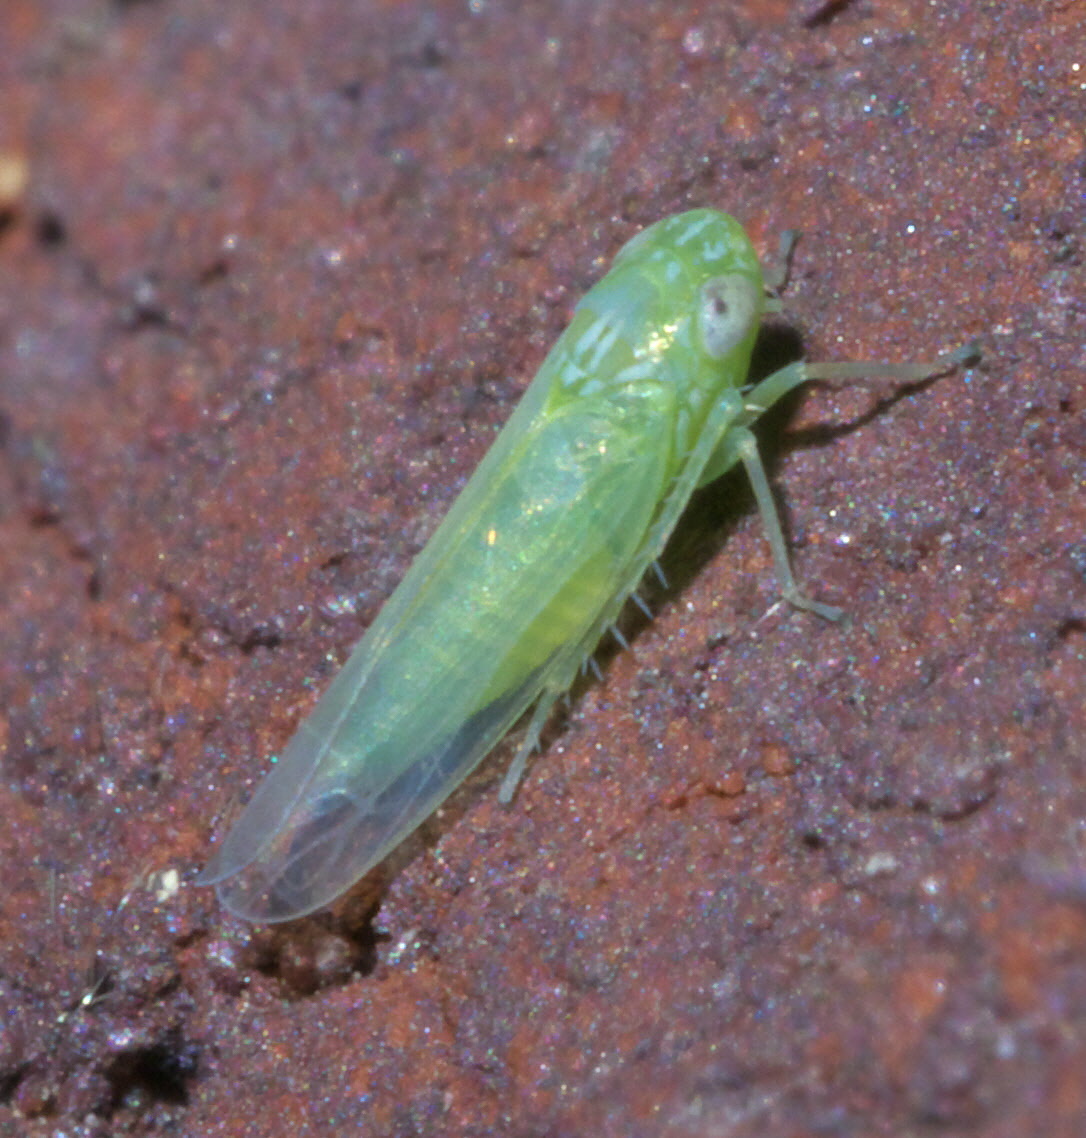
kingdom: Animalia
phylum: Arthropoda
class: Insecta
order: Hemiptera
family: Cicadellidae
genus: Empoasca
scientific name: Empoasca fabae
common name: Potato leafhopper
